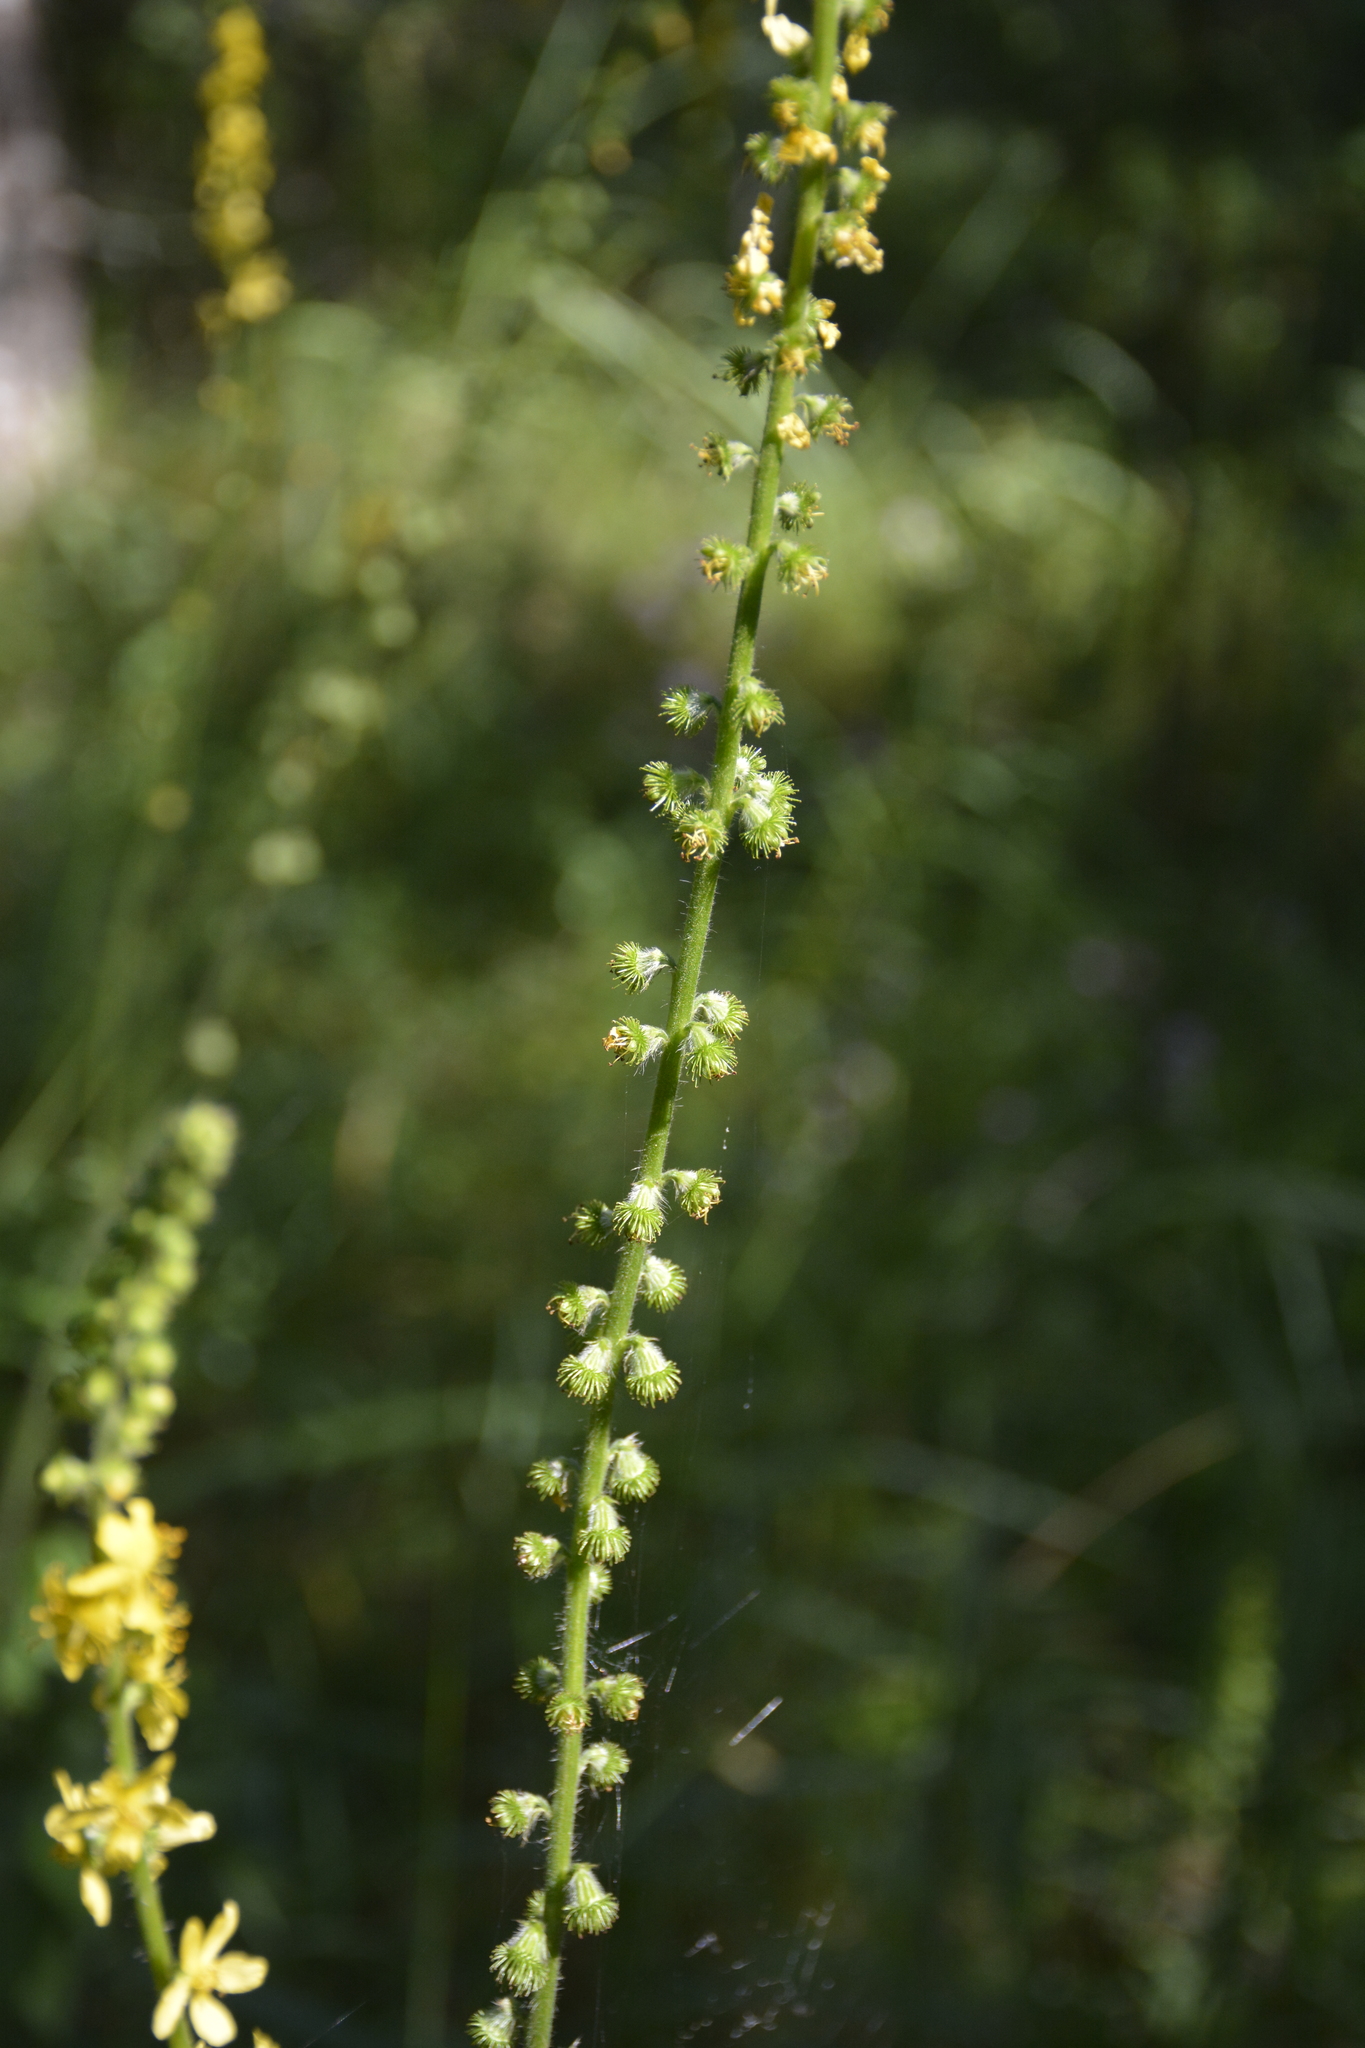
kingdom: Plantae
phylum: Tracheophyta
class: Magnoliopsida
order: Rosales
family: Rosaceae
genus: Agrimonia
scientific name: Agrimonia eupatoria
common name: Agrimony
